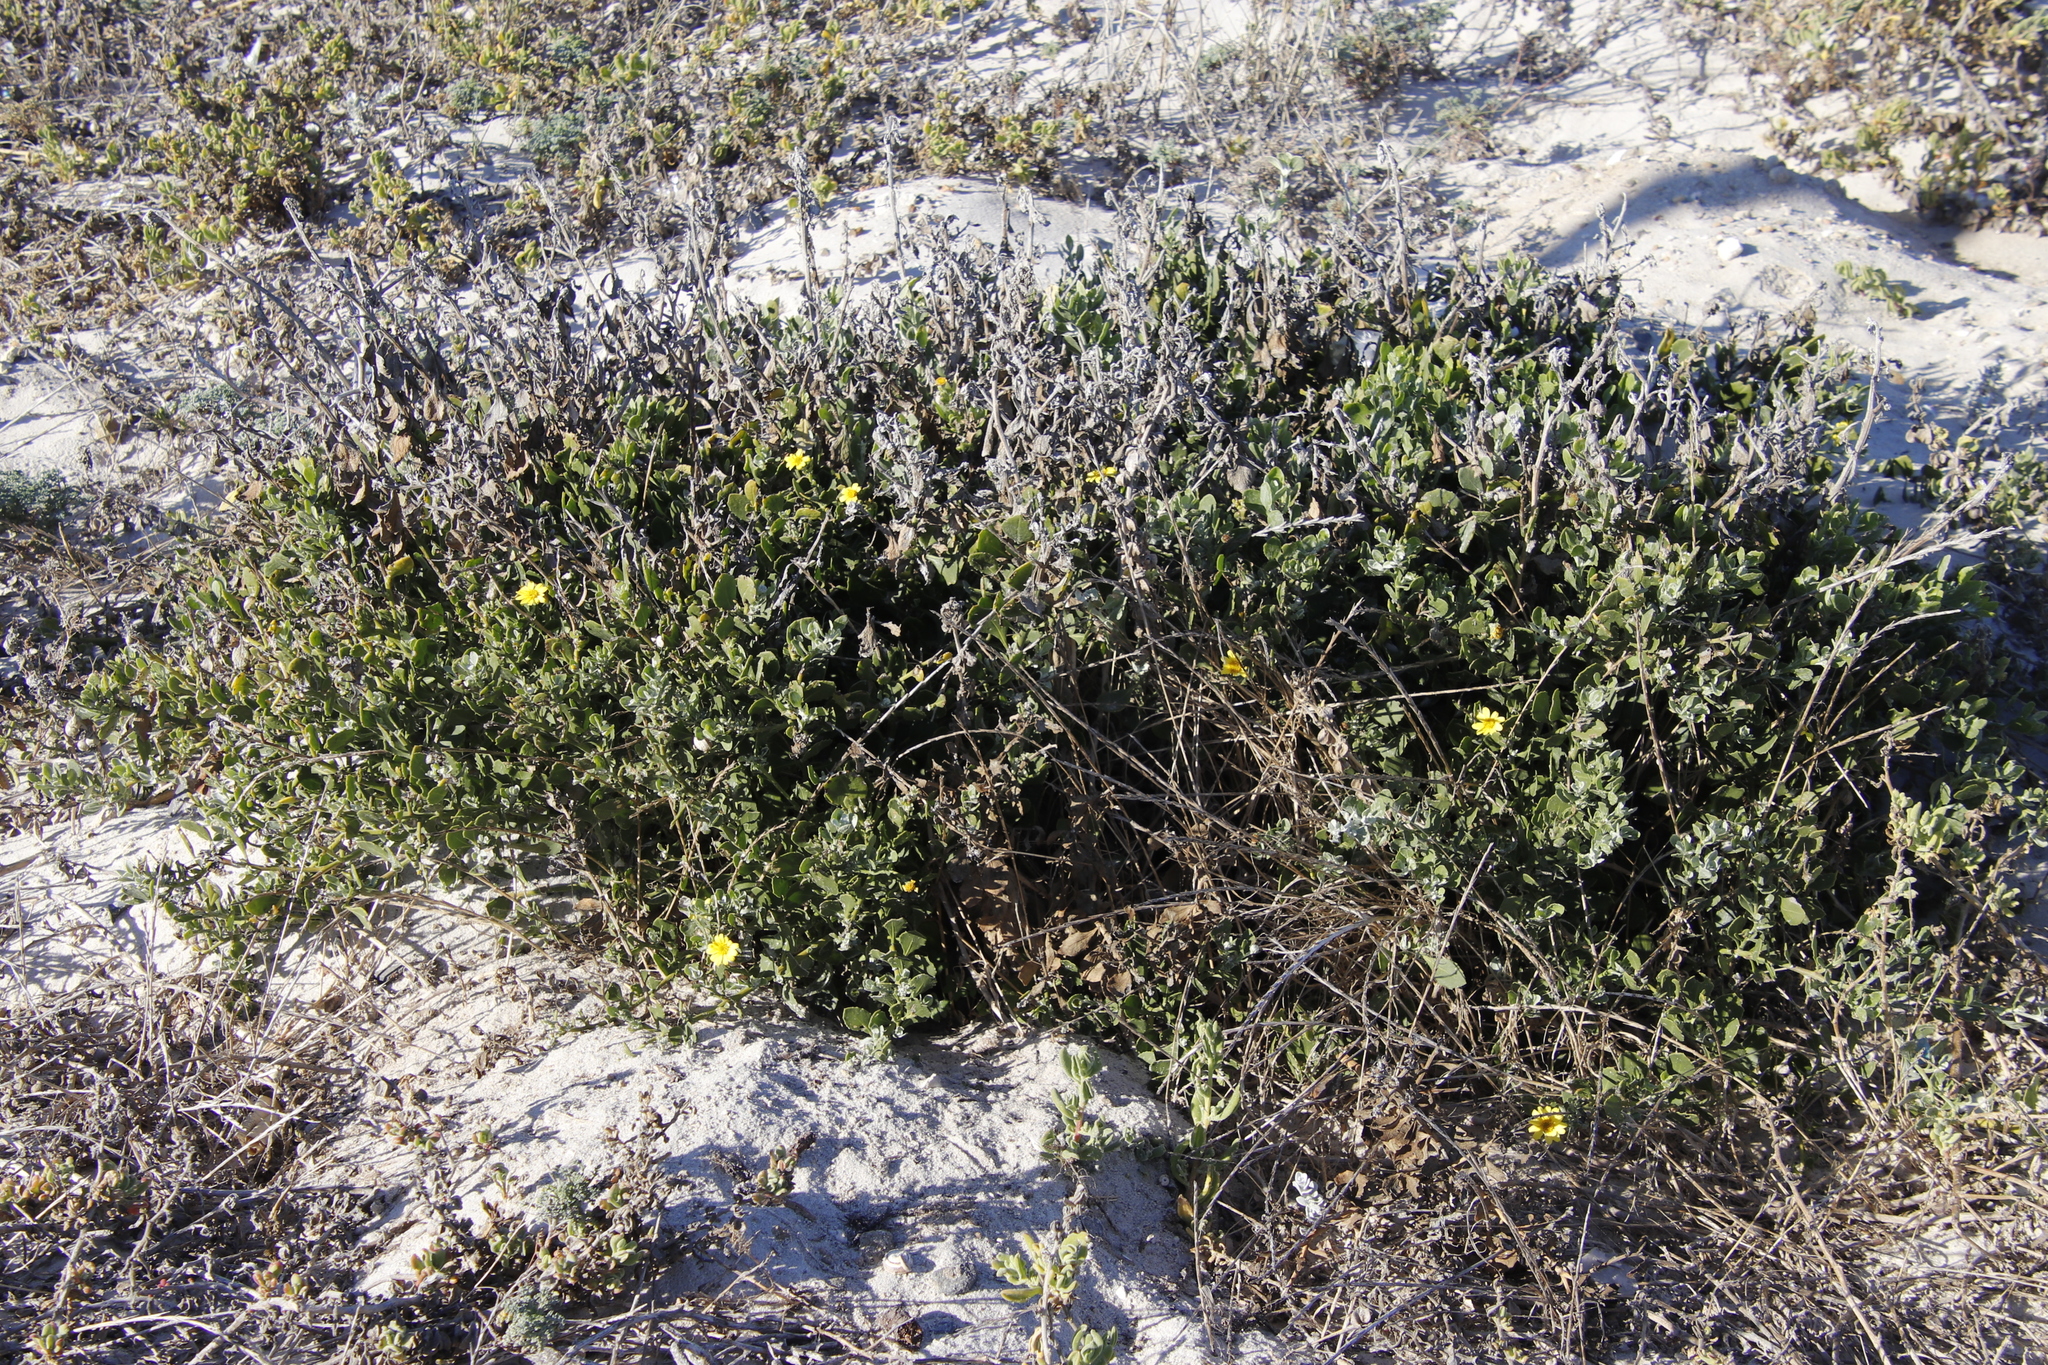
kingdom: Plantae
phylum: Tracheophyta
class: Magnoliopsida
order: Asterales
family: Asteraceae
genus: Osteospermum
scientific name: Osteospermum incanum
